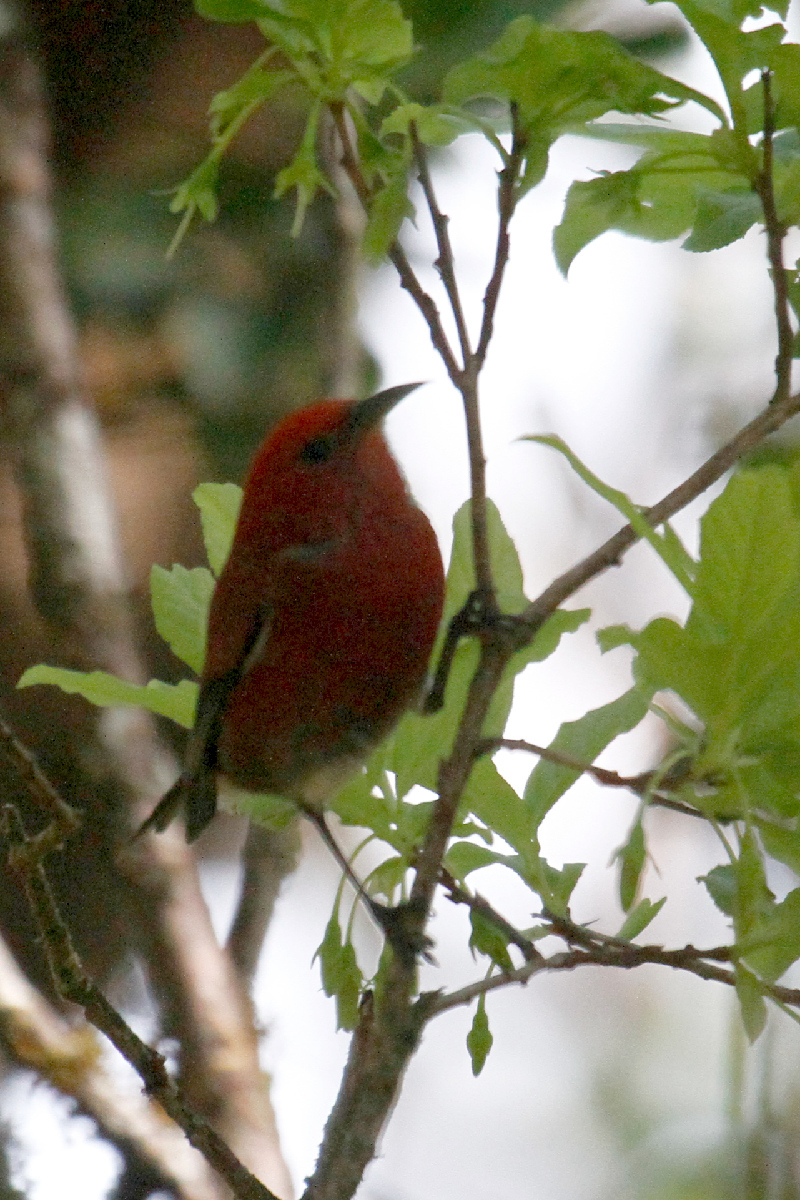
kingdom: Animalia
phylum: Chordata
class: Aves
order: Passeriformes
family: Fringillidae
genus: Himatione
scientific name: Himatione sanguinea
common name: Apapane
